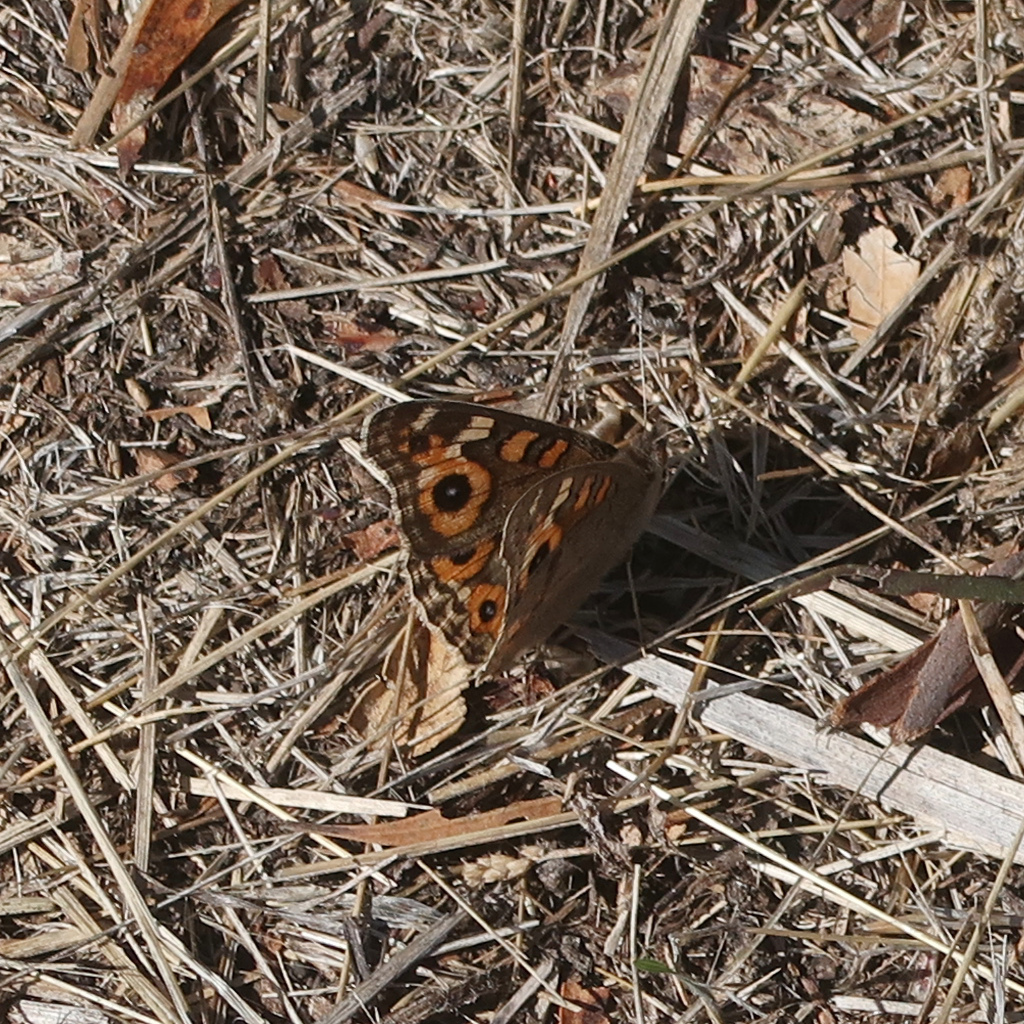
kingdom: Animalia
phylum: Arthropoda
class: Insecta
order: Lepidoptera
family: Nymphalidae
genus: Junonia
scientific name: Junonia villida
